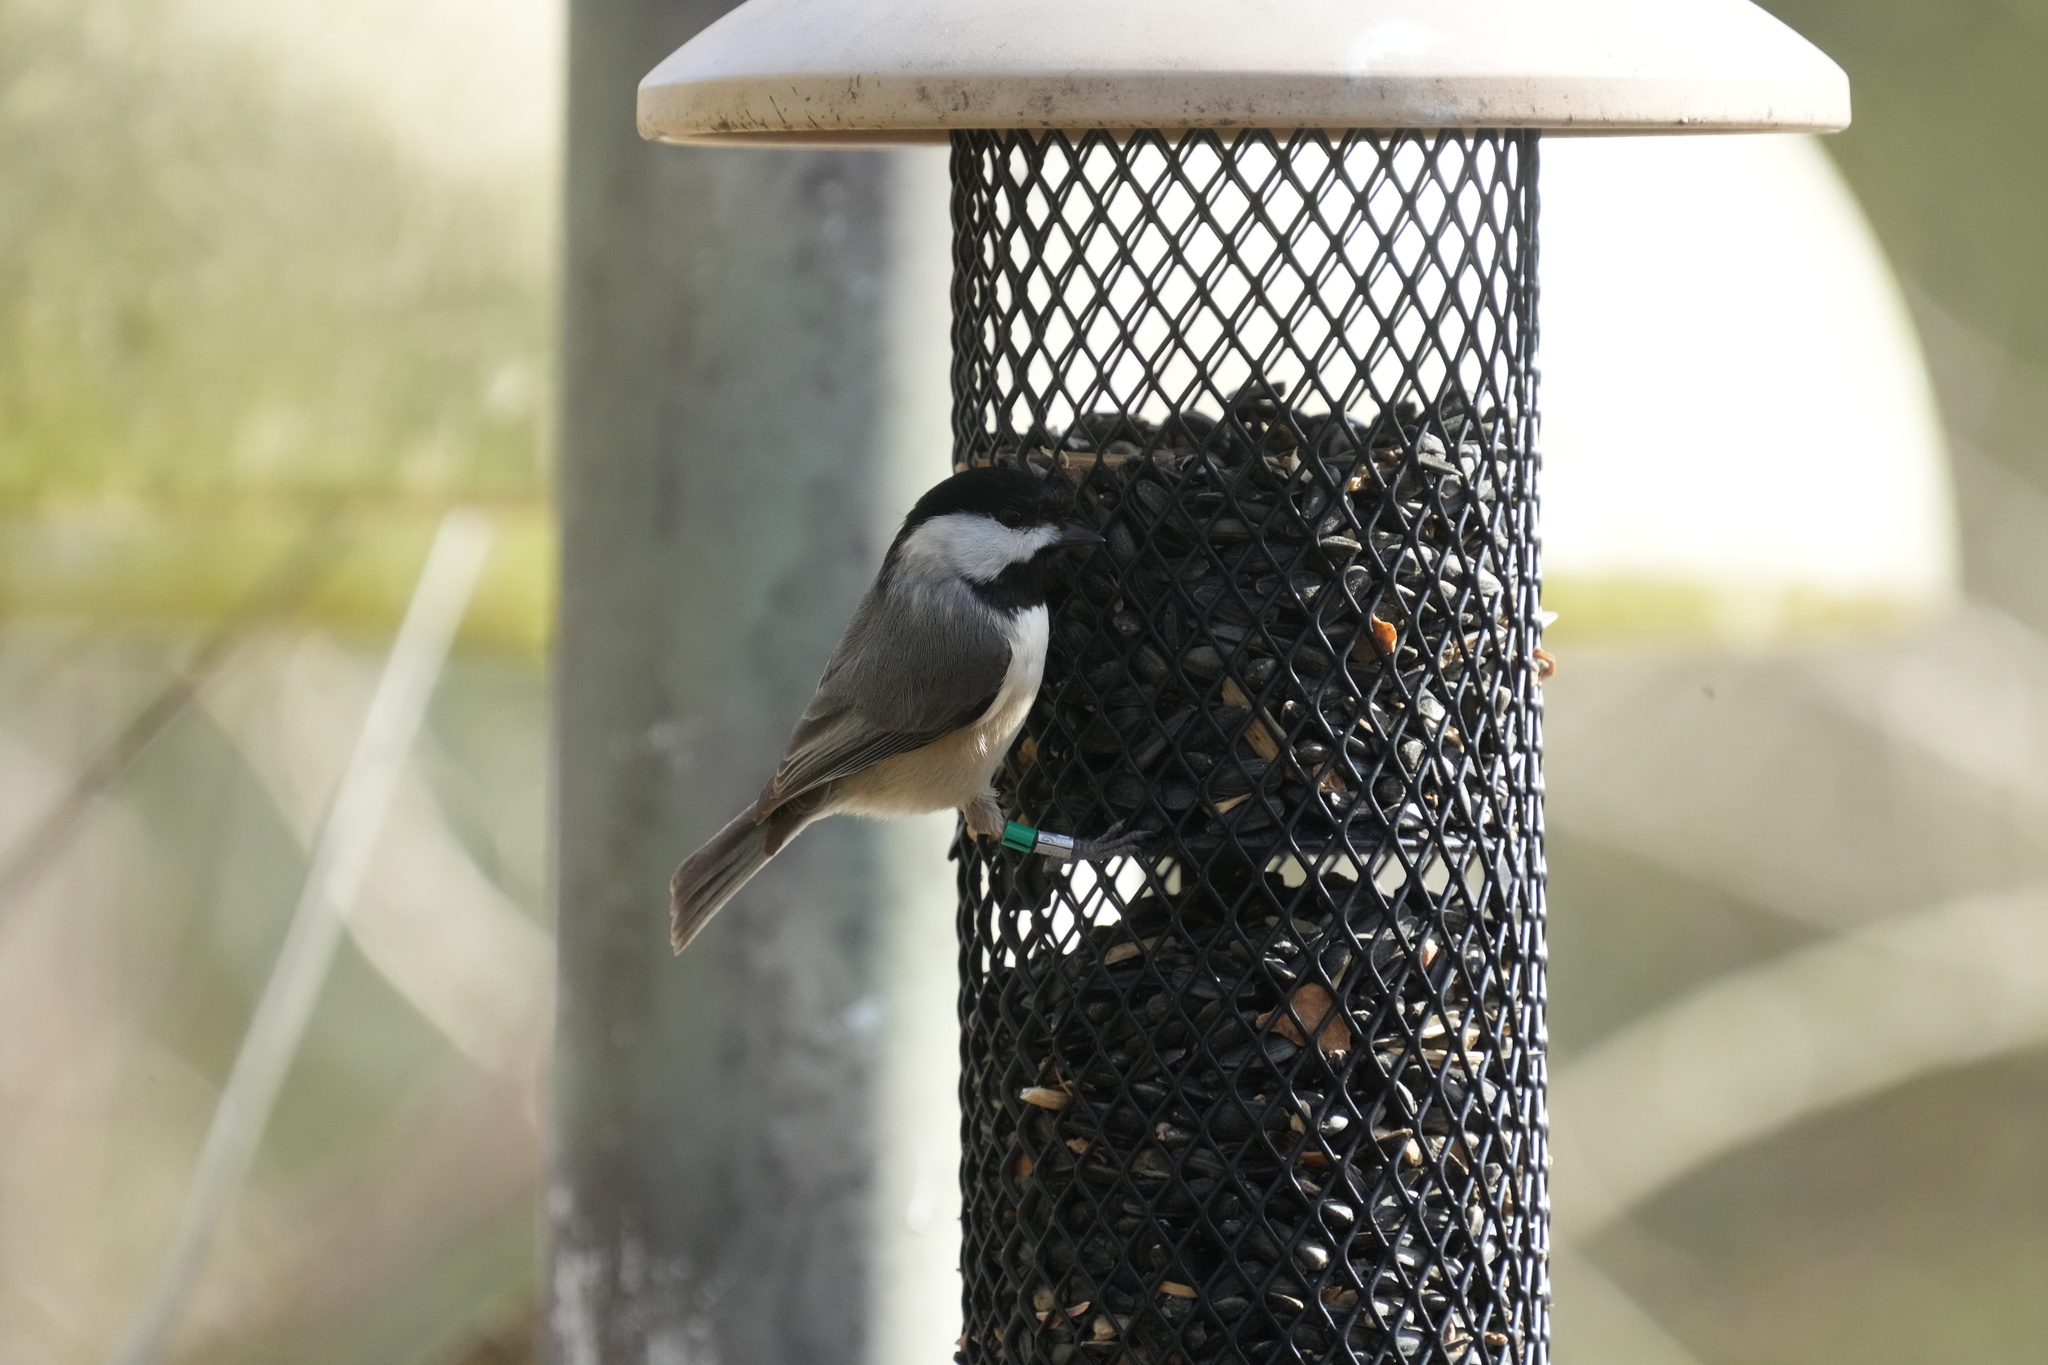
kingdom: Animalia
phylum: Chordata
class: Aves
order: Passeriformes
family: Paridae
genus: Poecile
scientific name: Poecile carolinensis
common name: Carolina chickadee
